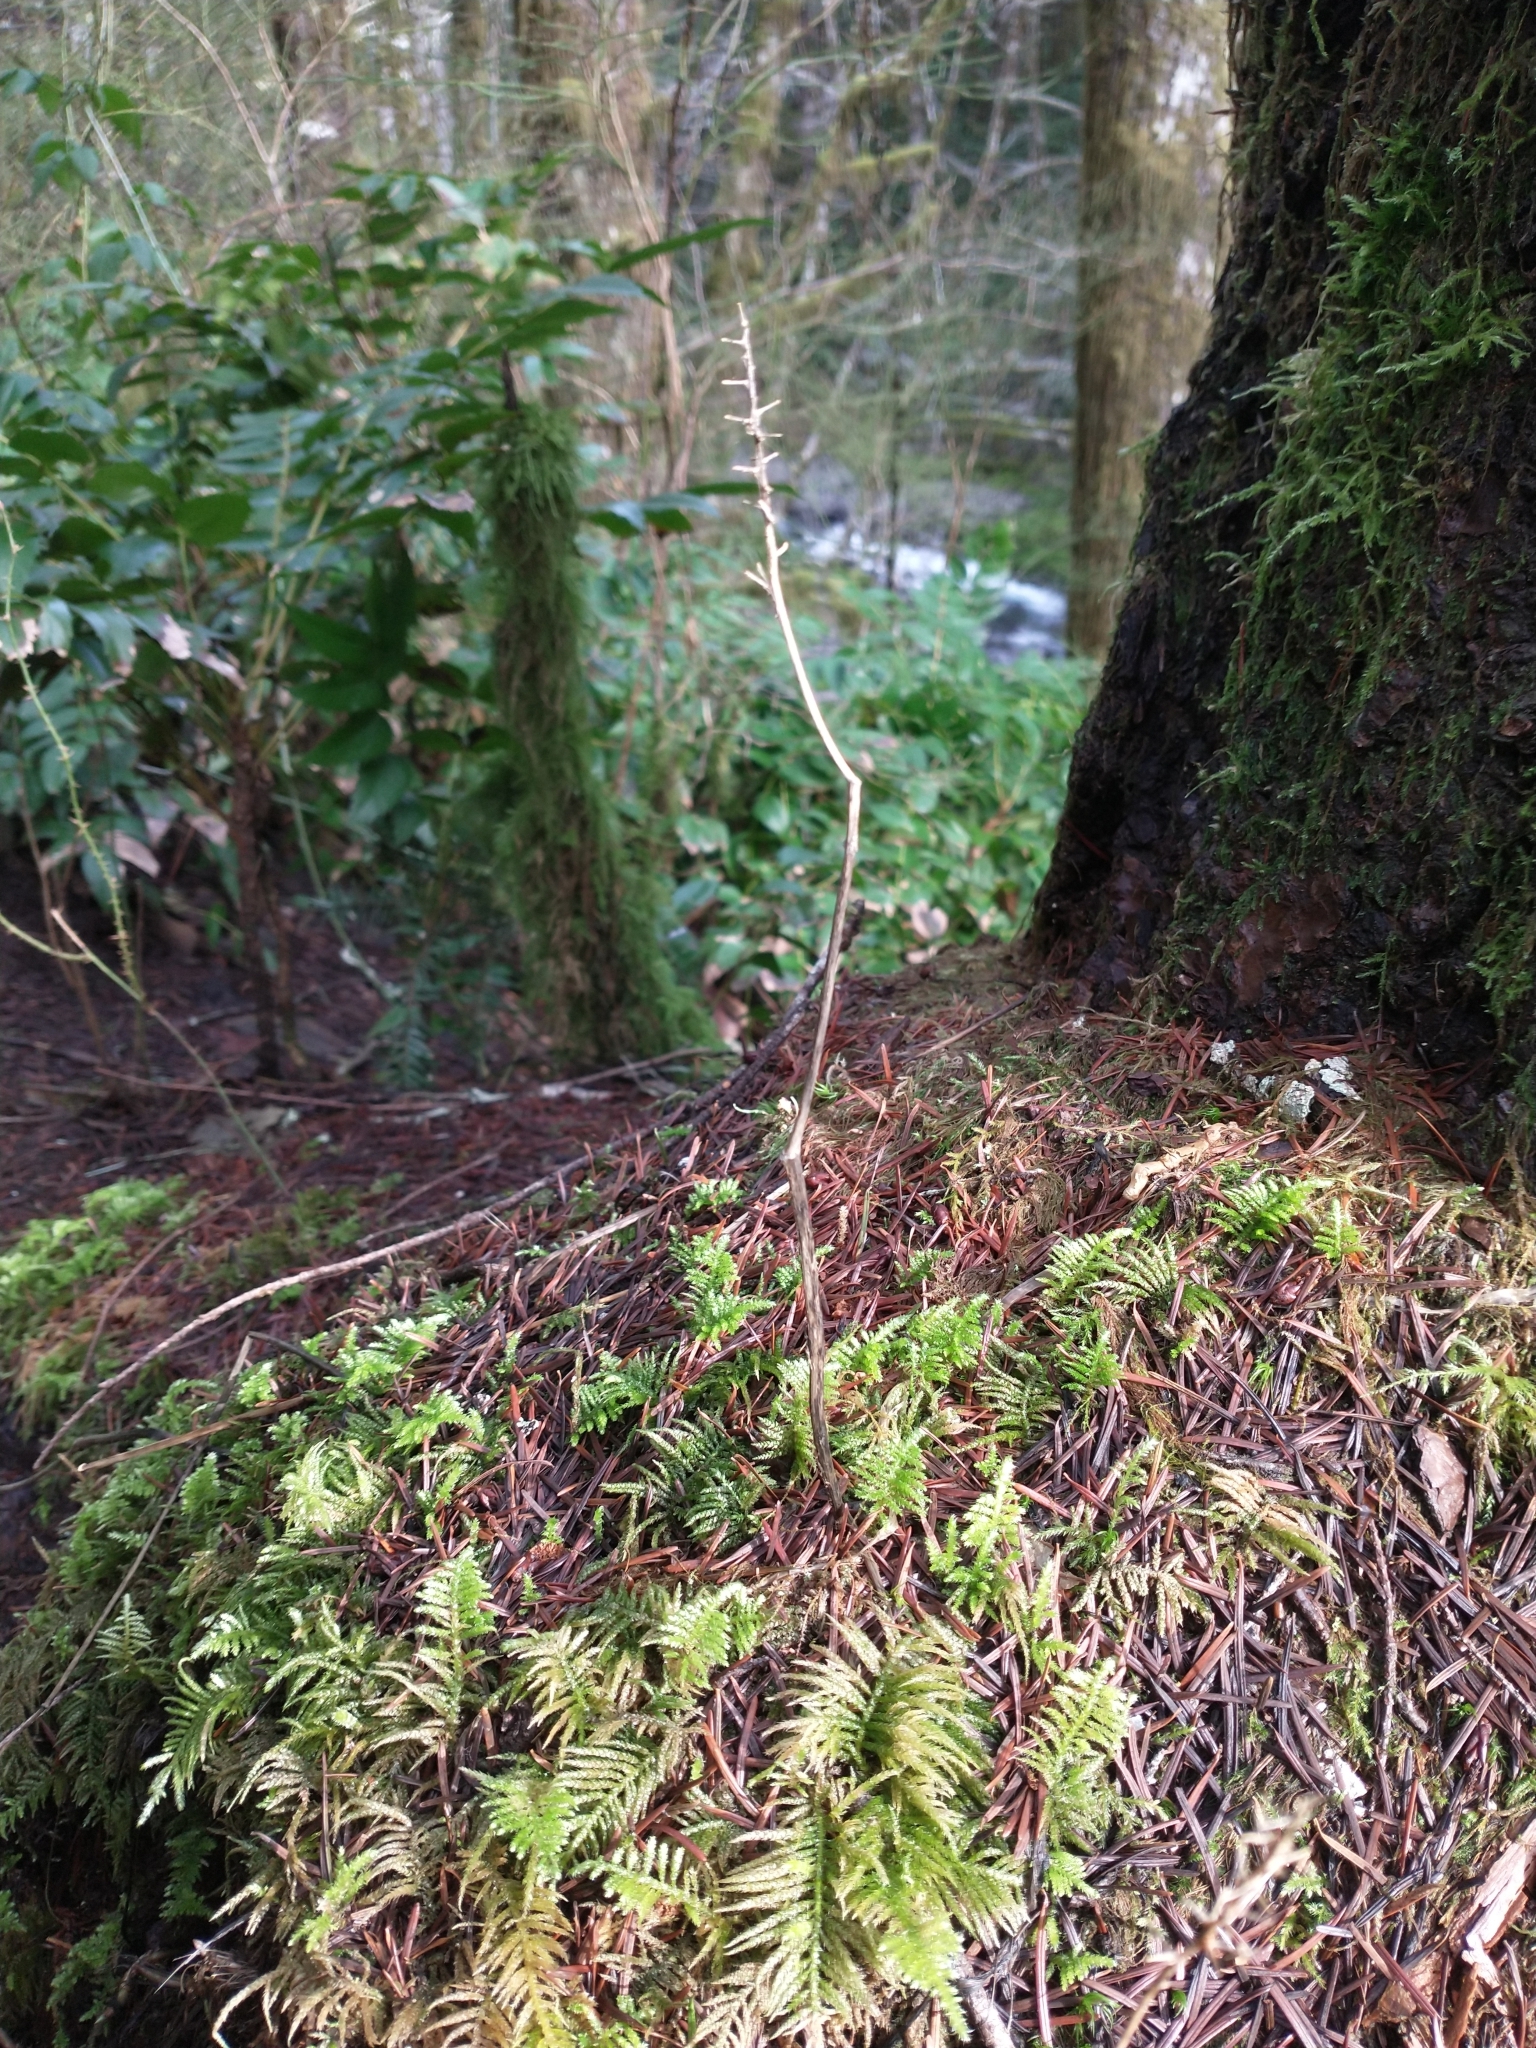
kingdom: Plantae
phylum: Tracheophyta
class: Liliopsida
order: Asparagales
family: Asparagaceae
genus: Maianthemum
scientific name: Maianthemum dilatatum
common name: False lily-of-the-valley
